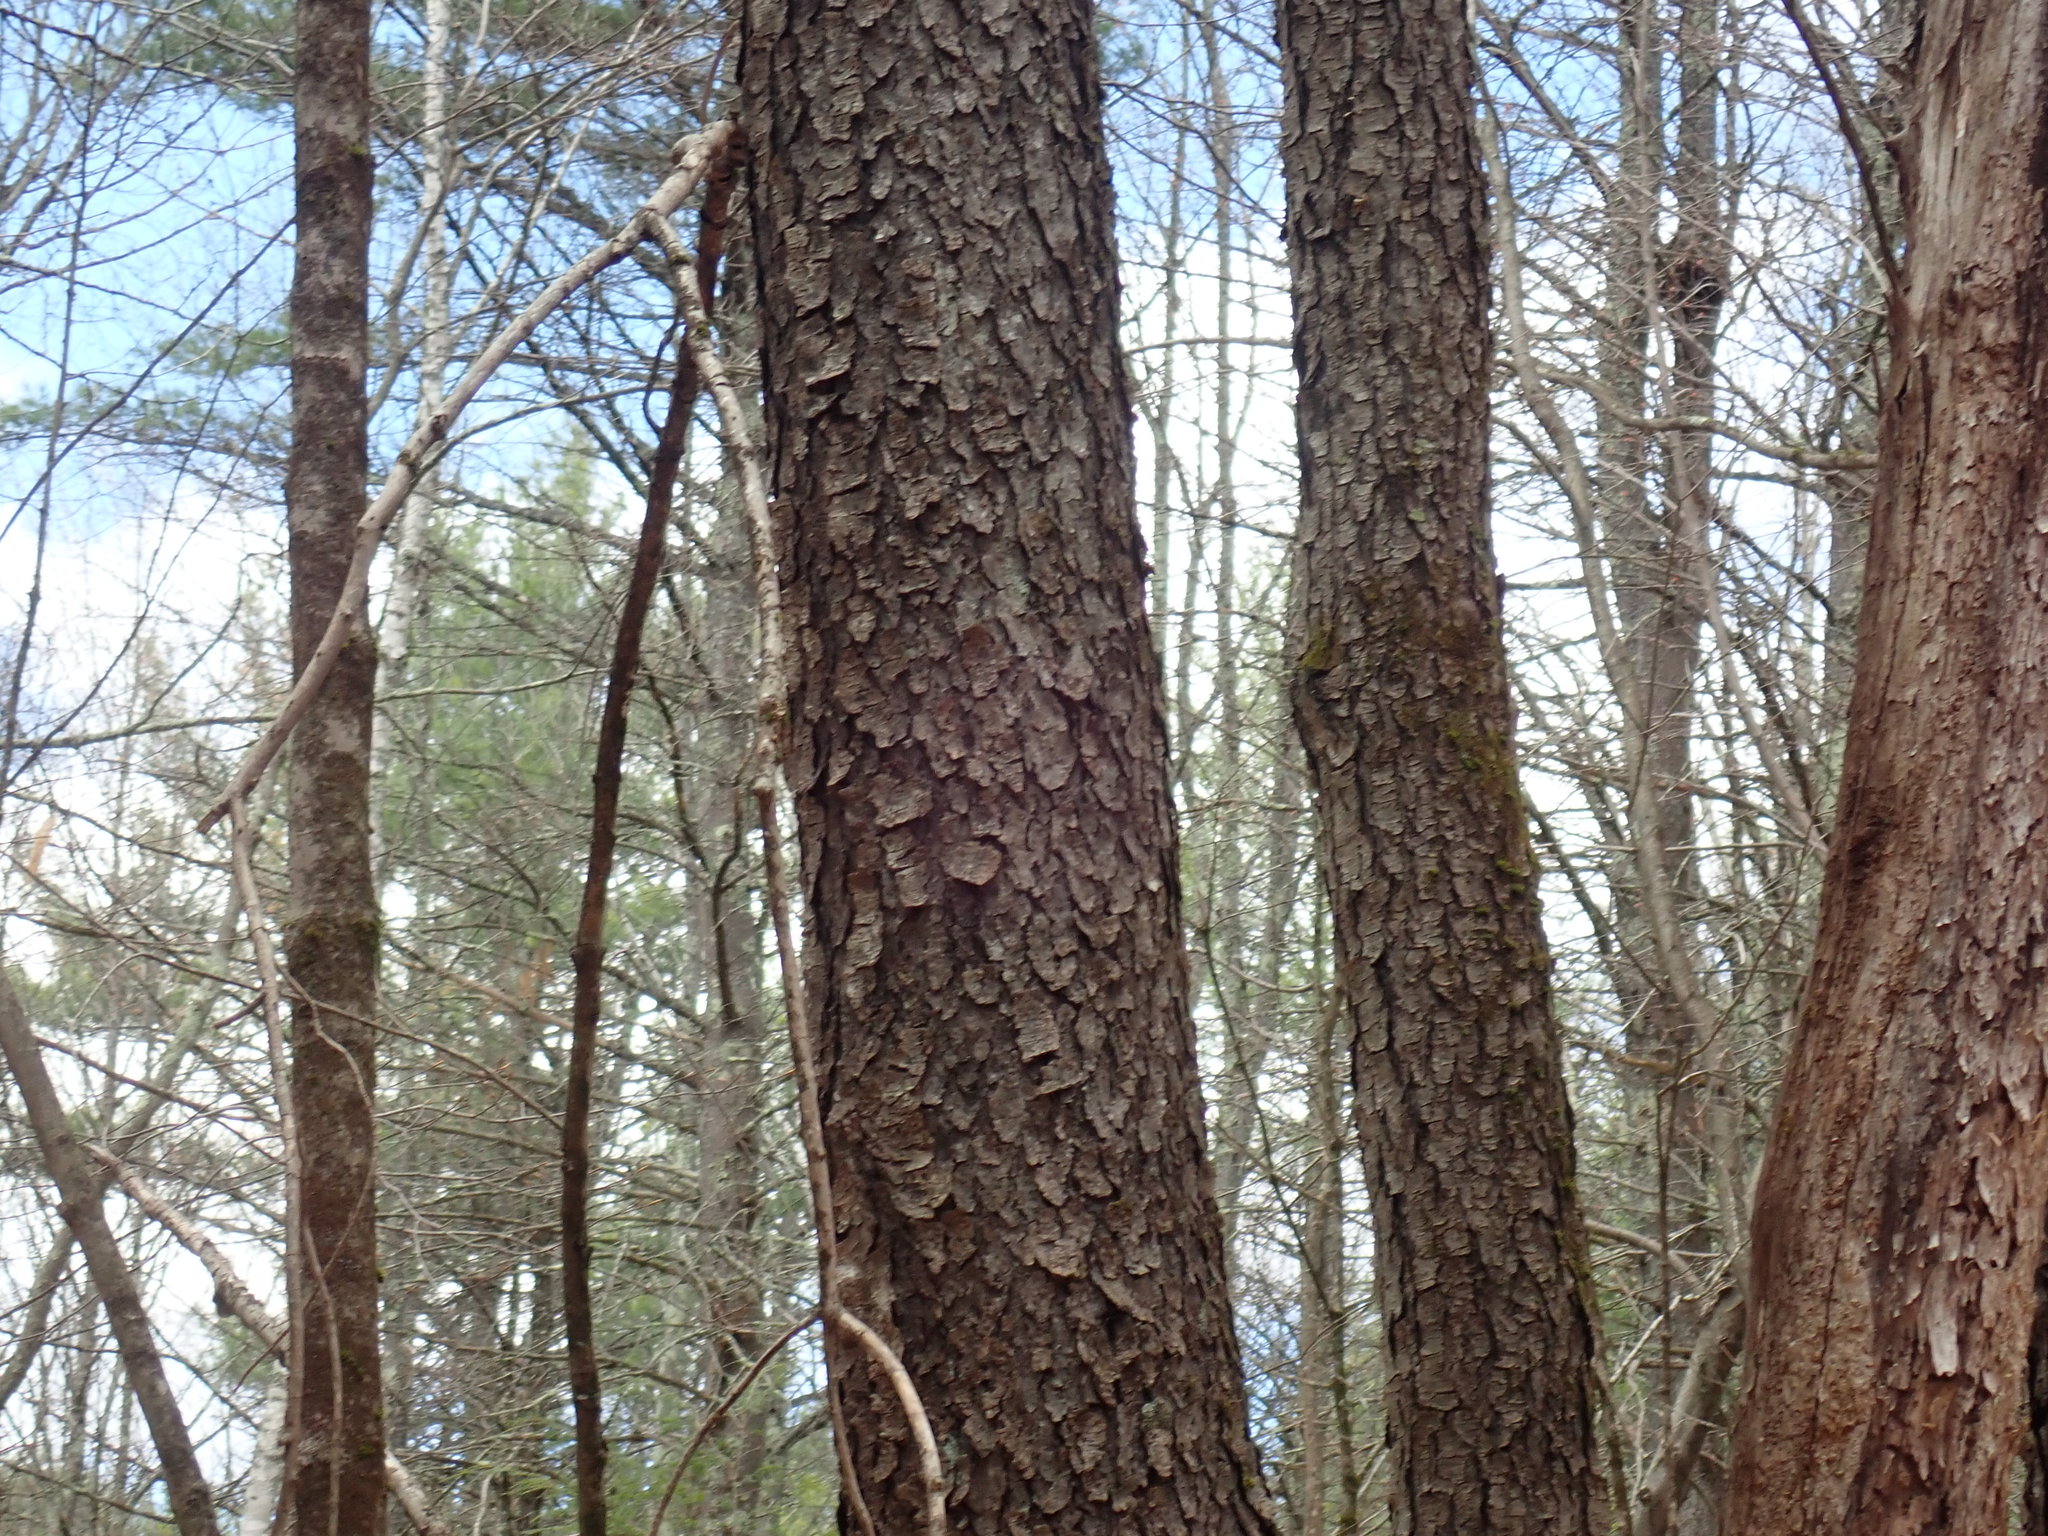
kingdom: Plantae
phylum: Tracheophyta
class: Magnoliopsida
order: Rosales
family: Rosaceae
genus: Prunus
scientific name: Prunus serotina
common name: Black cherry
